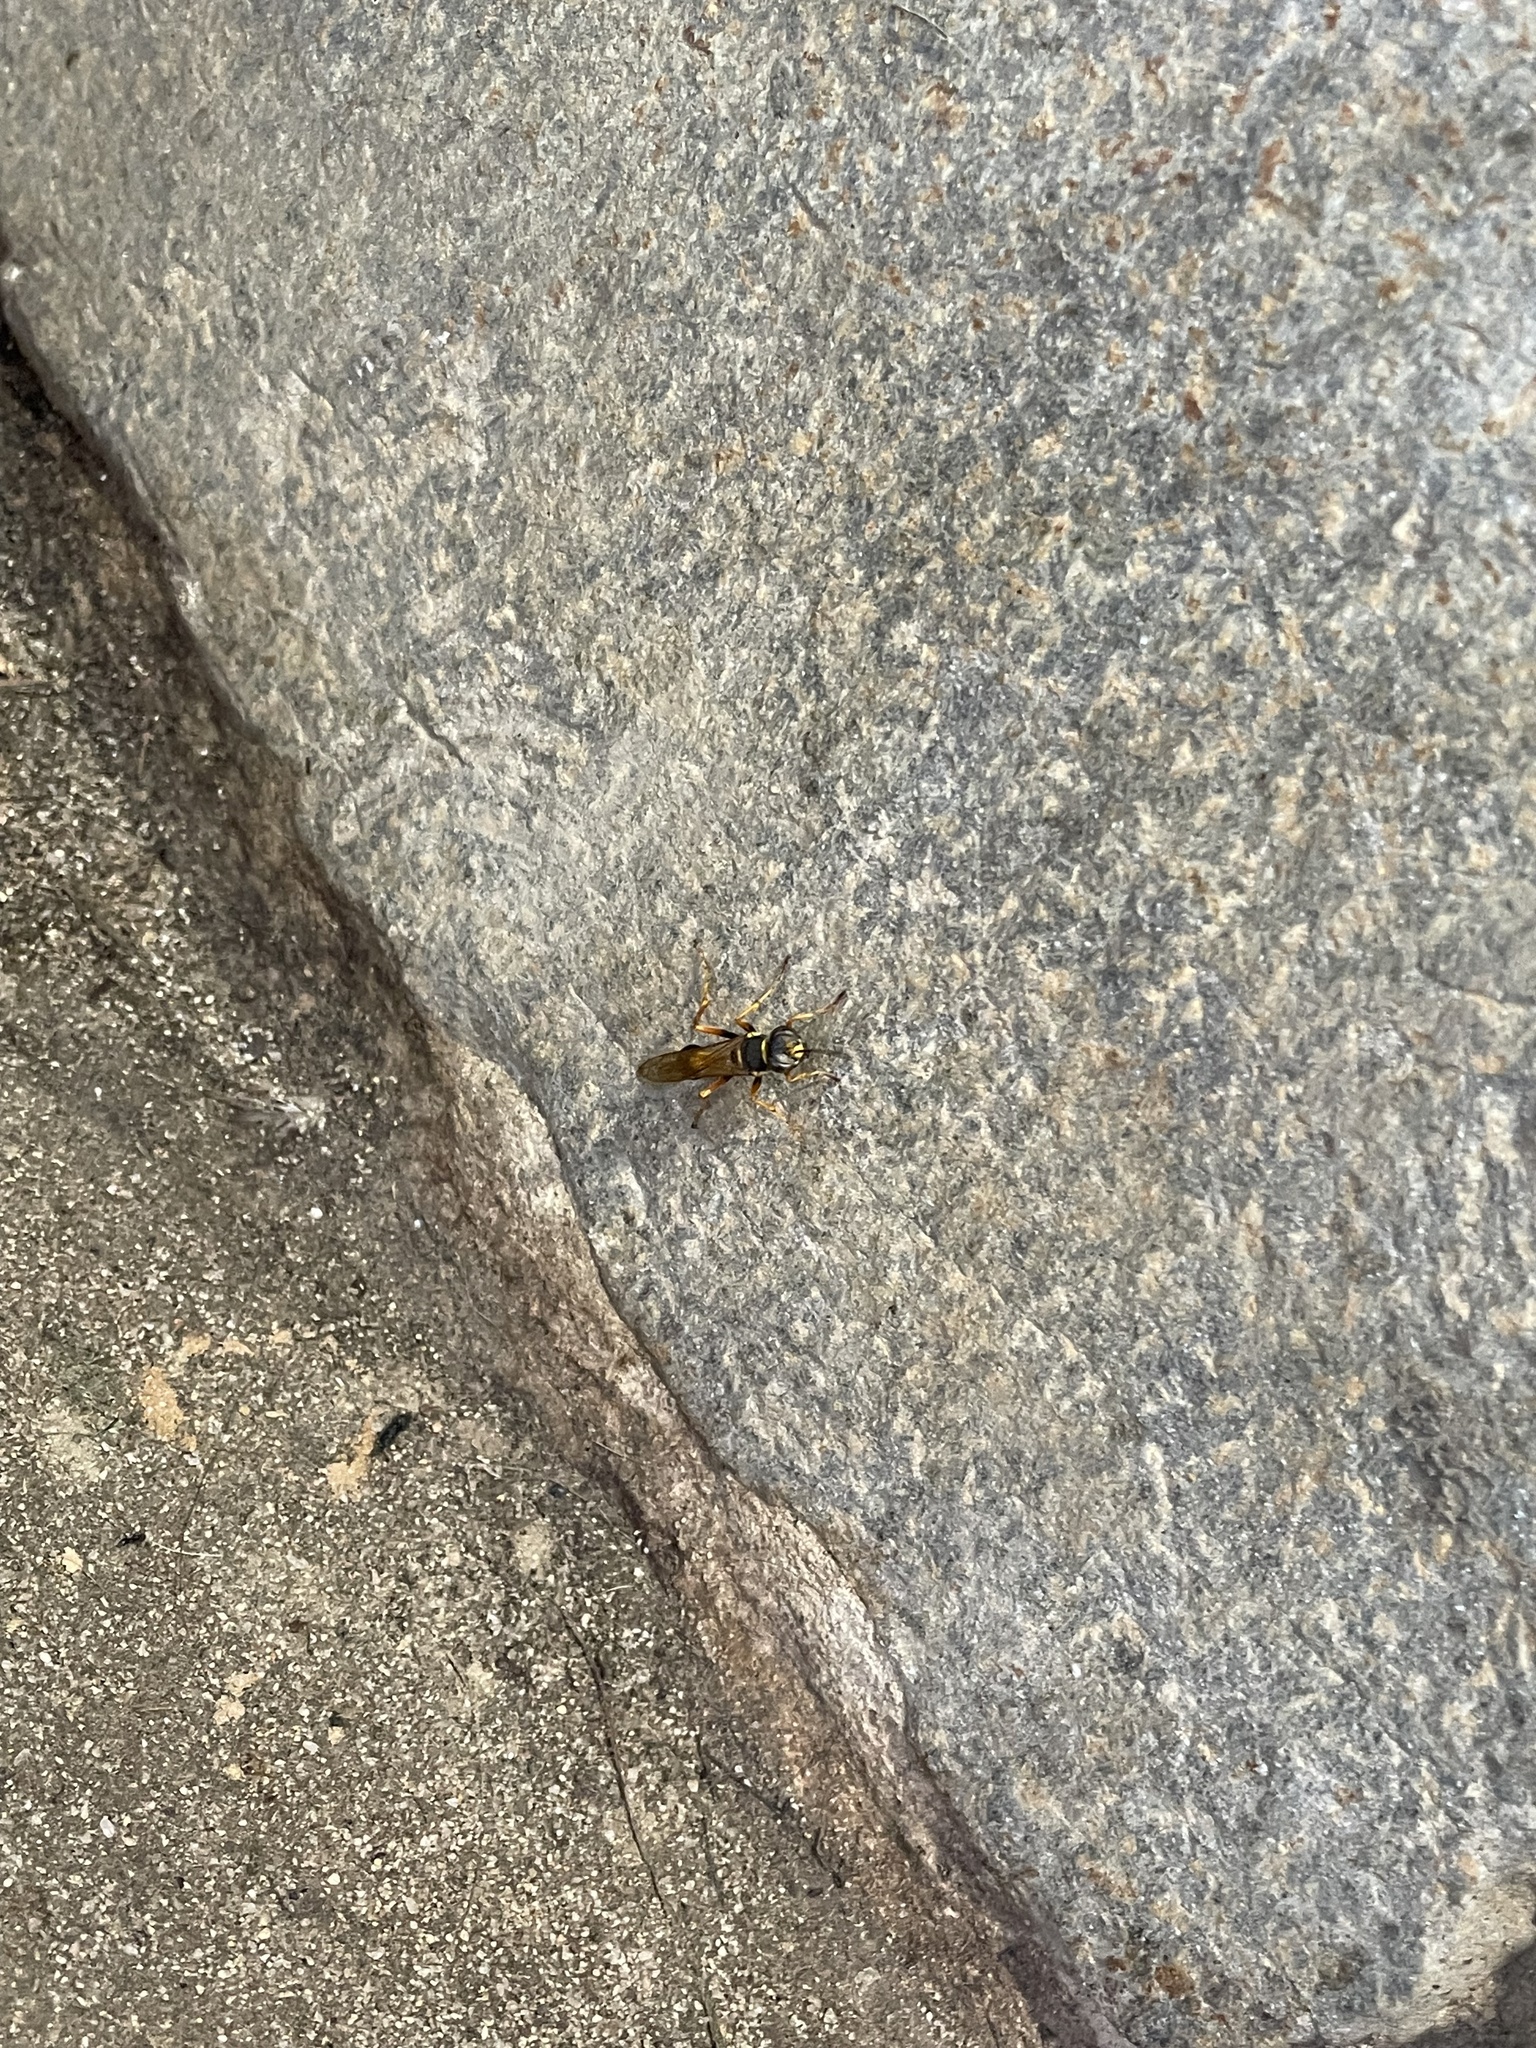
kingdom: Animalia
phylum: Arthropoda
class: Insecta
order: Hymenoptera
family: Sphecidae
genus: Sceliphron
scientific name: Sceliphron formosum
